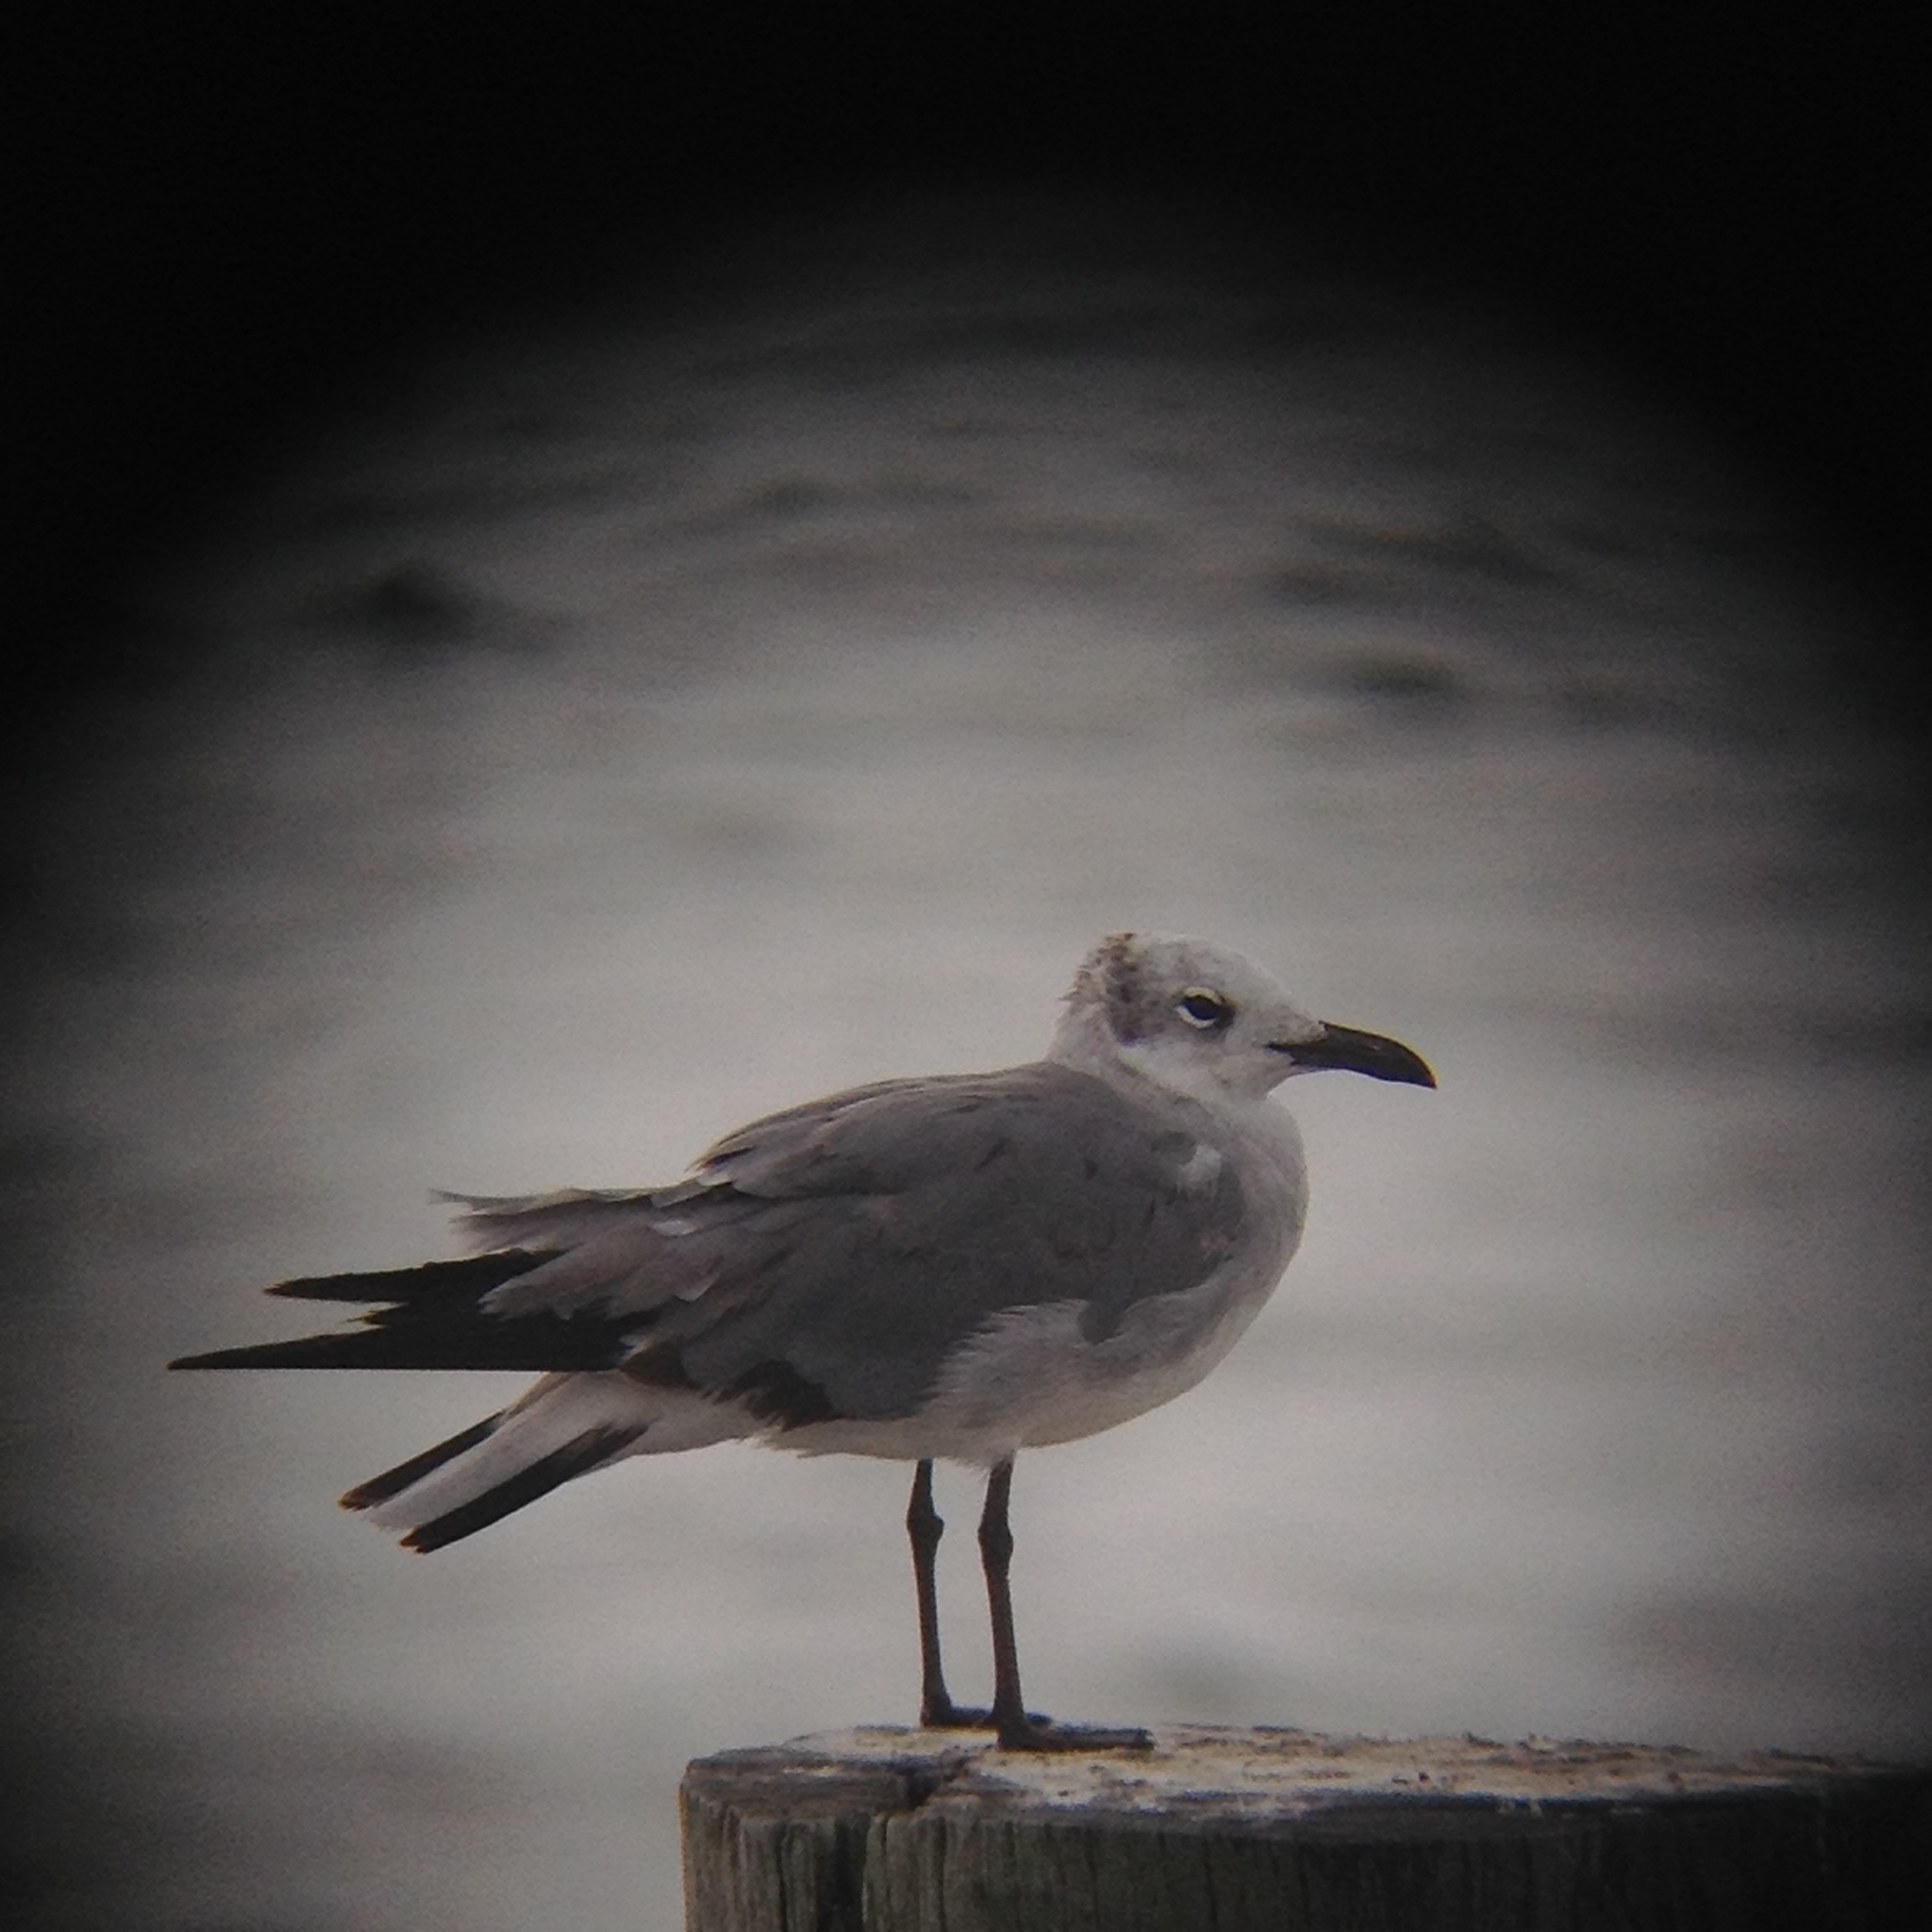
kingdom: Animalia
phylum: Chordata
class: Aves
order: Charadriiformes
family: Laridae
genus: Leucophaeus
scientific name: Leucophaeus atricilla
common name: Laughing gull
